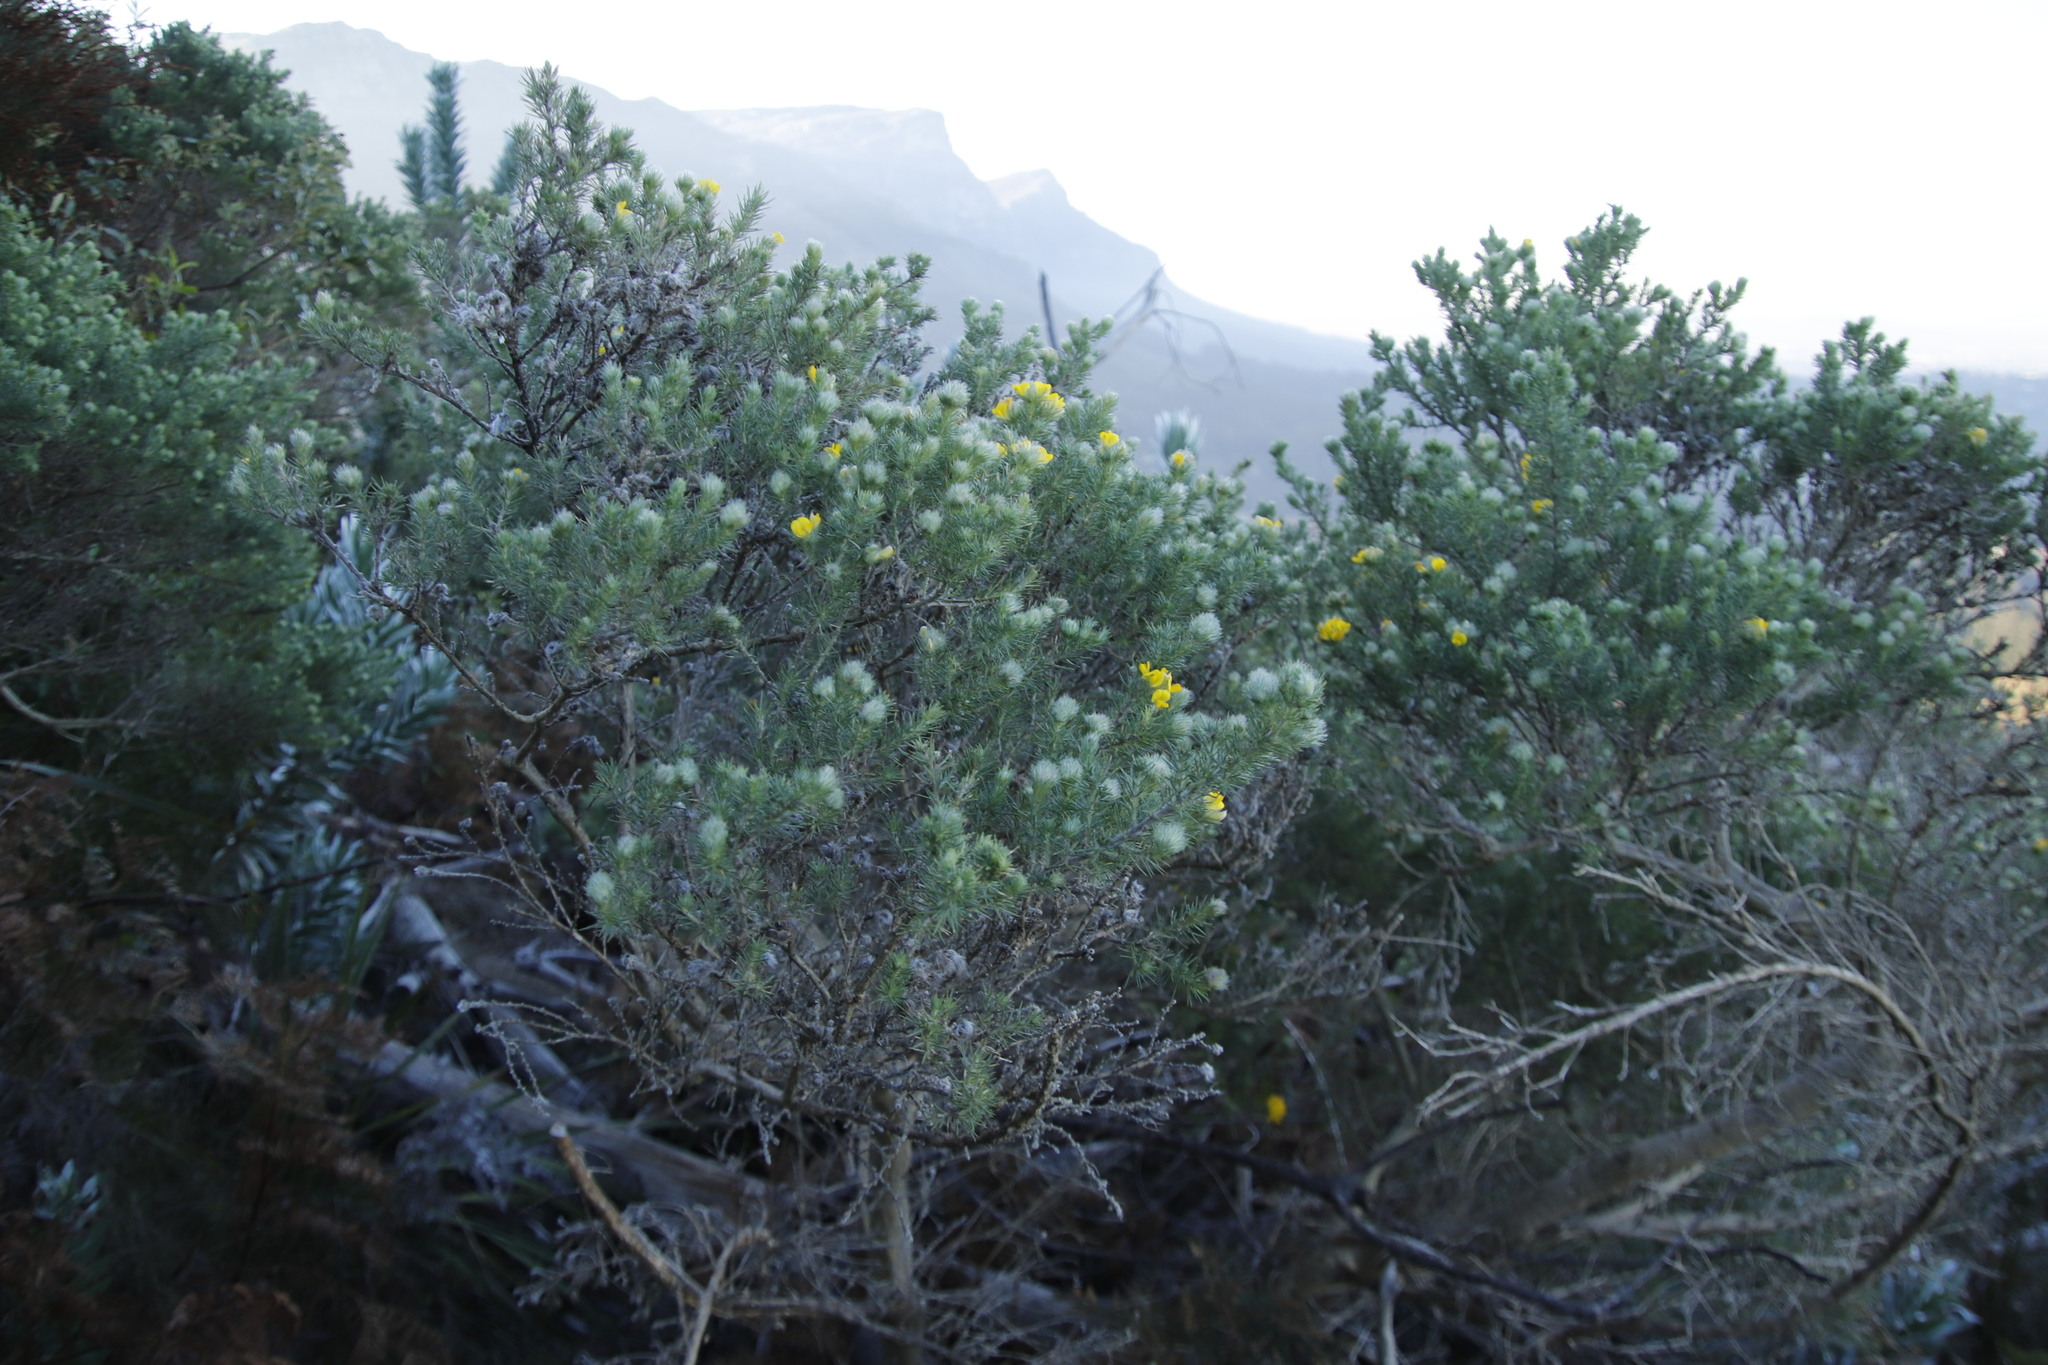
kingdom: Plantae
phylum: Tracheophyta
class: Magnoliopsida
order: Fabales
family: Fabaceae
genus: Aspalathus
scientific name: Aspalathus chenopoda
